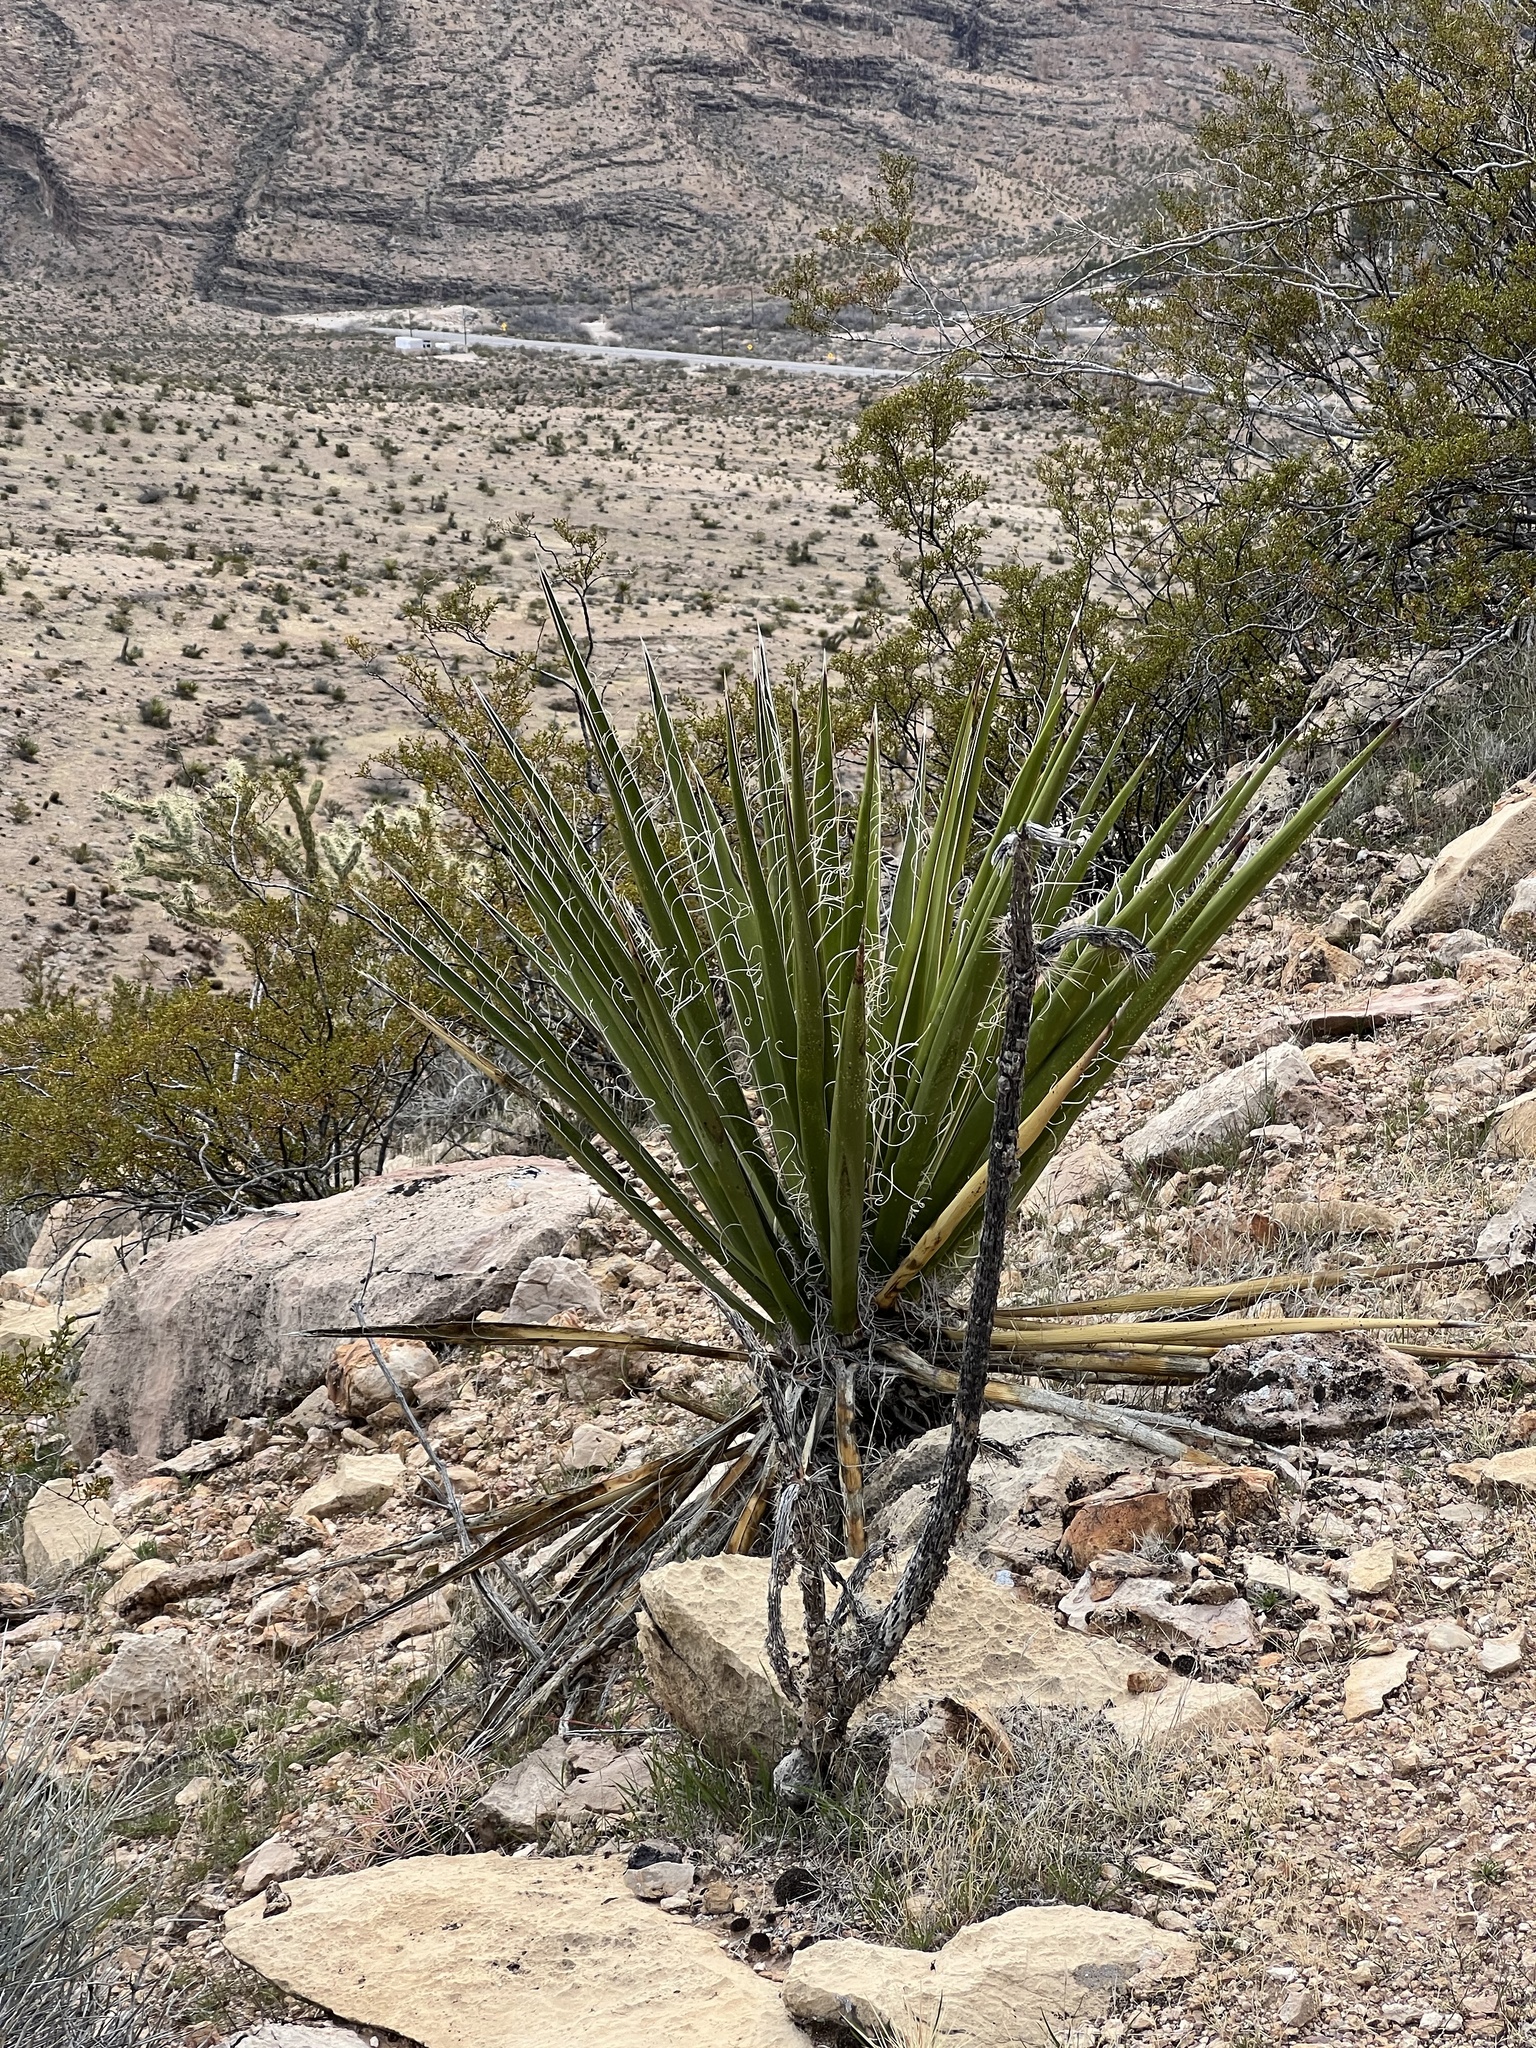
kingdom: Plantae
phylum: Tracheophyta
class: Liliopsida
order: Asparagales
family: Asparagaceae
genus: Yucca
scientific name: Yucca schidigera
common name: Mojave yucca
